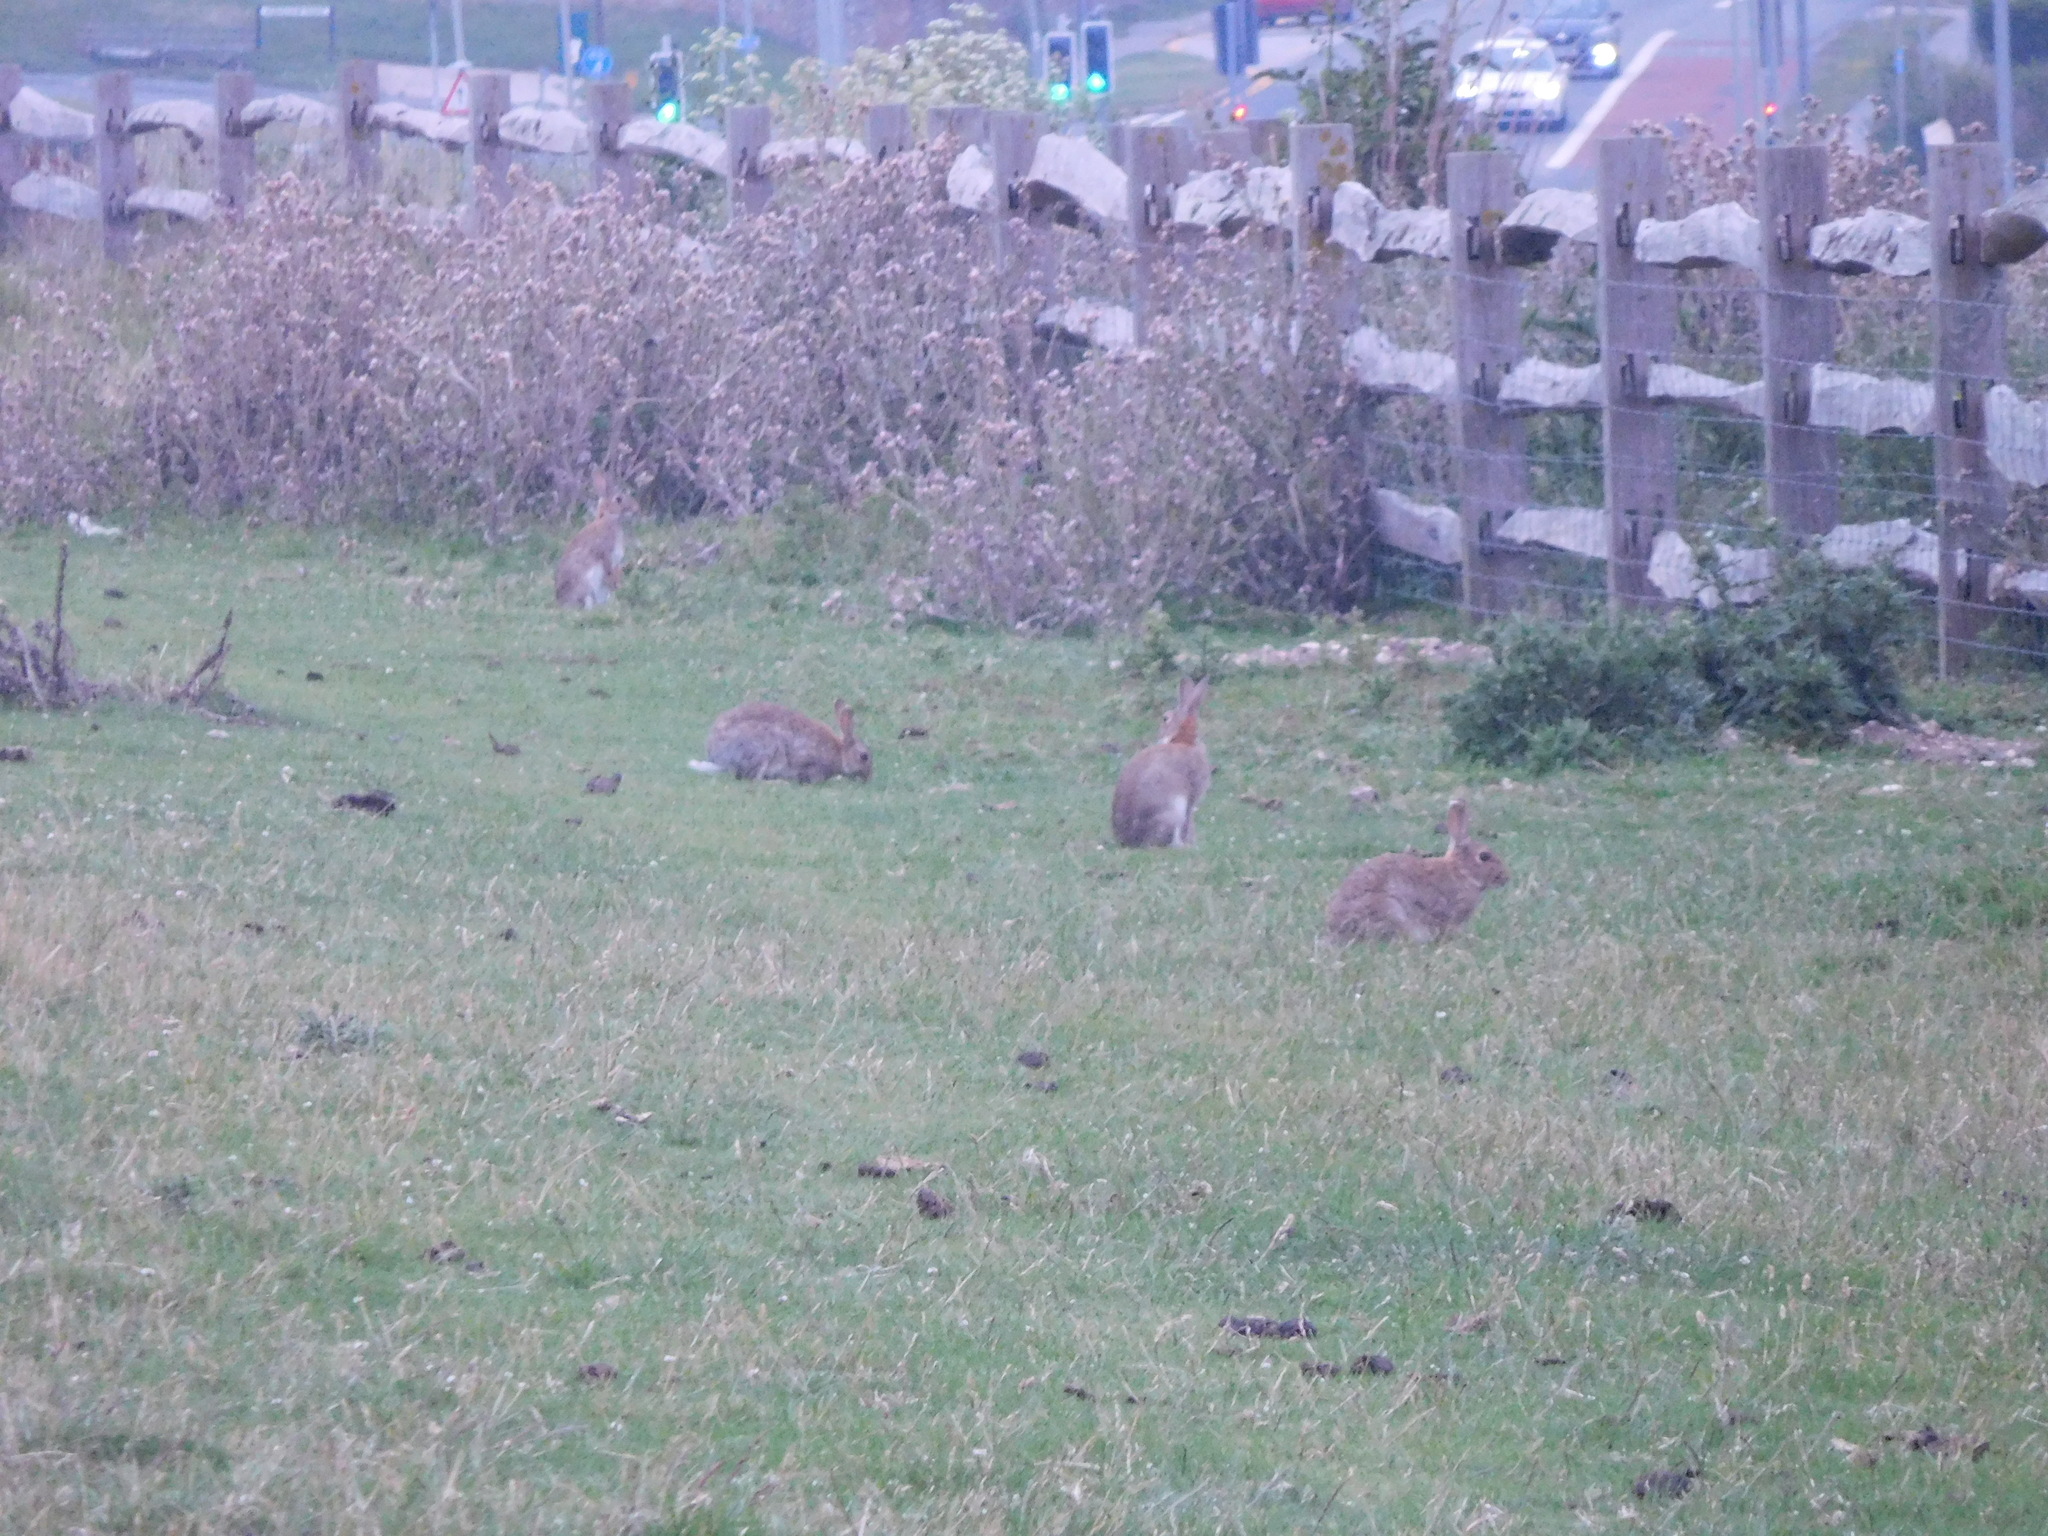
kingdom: Animalia
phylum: Chordata
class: Mammalia
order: Lagomorpha
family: Leporidae
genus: Oryctolagus
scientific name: Oryctolagus cuniculus
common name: European rabbit
